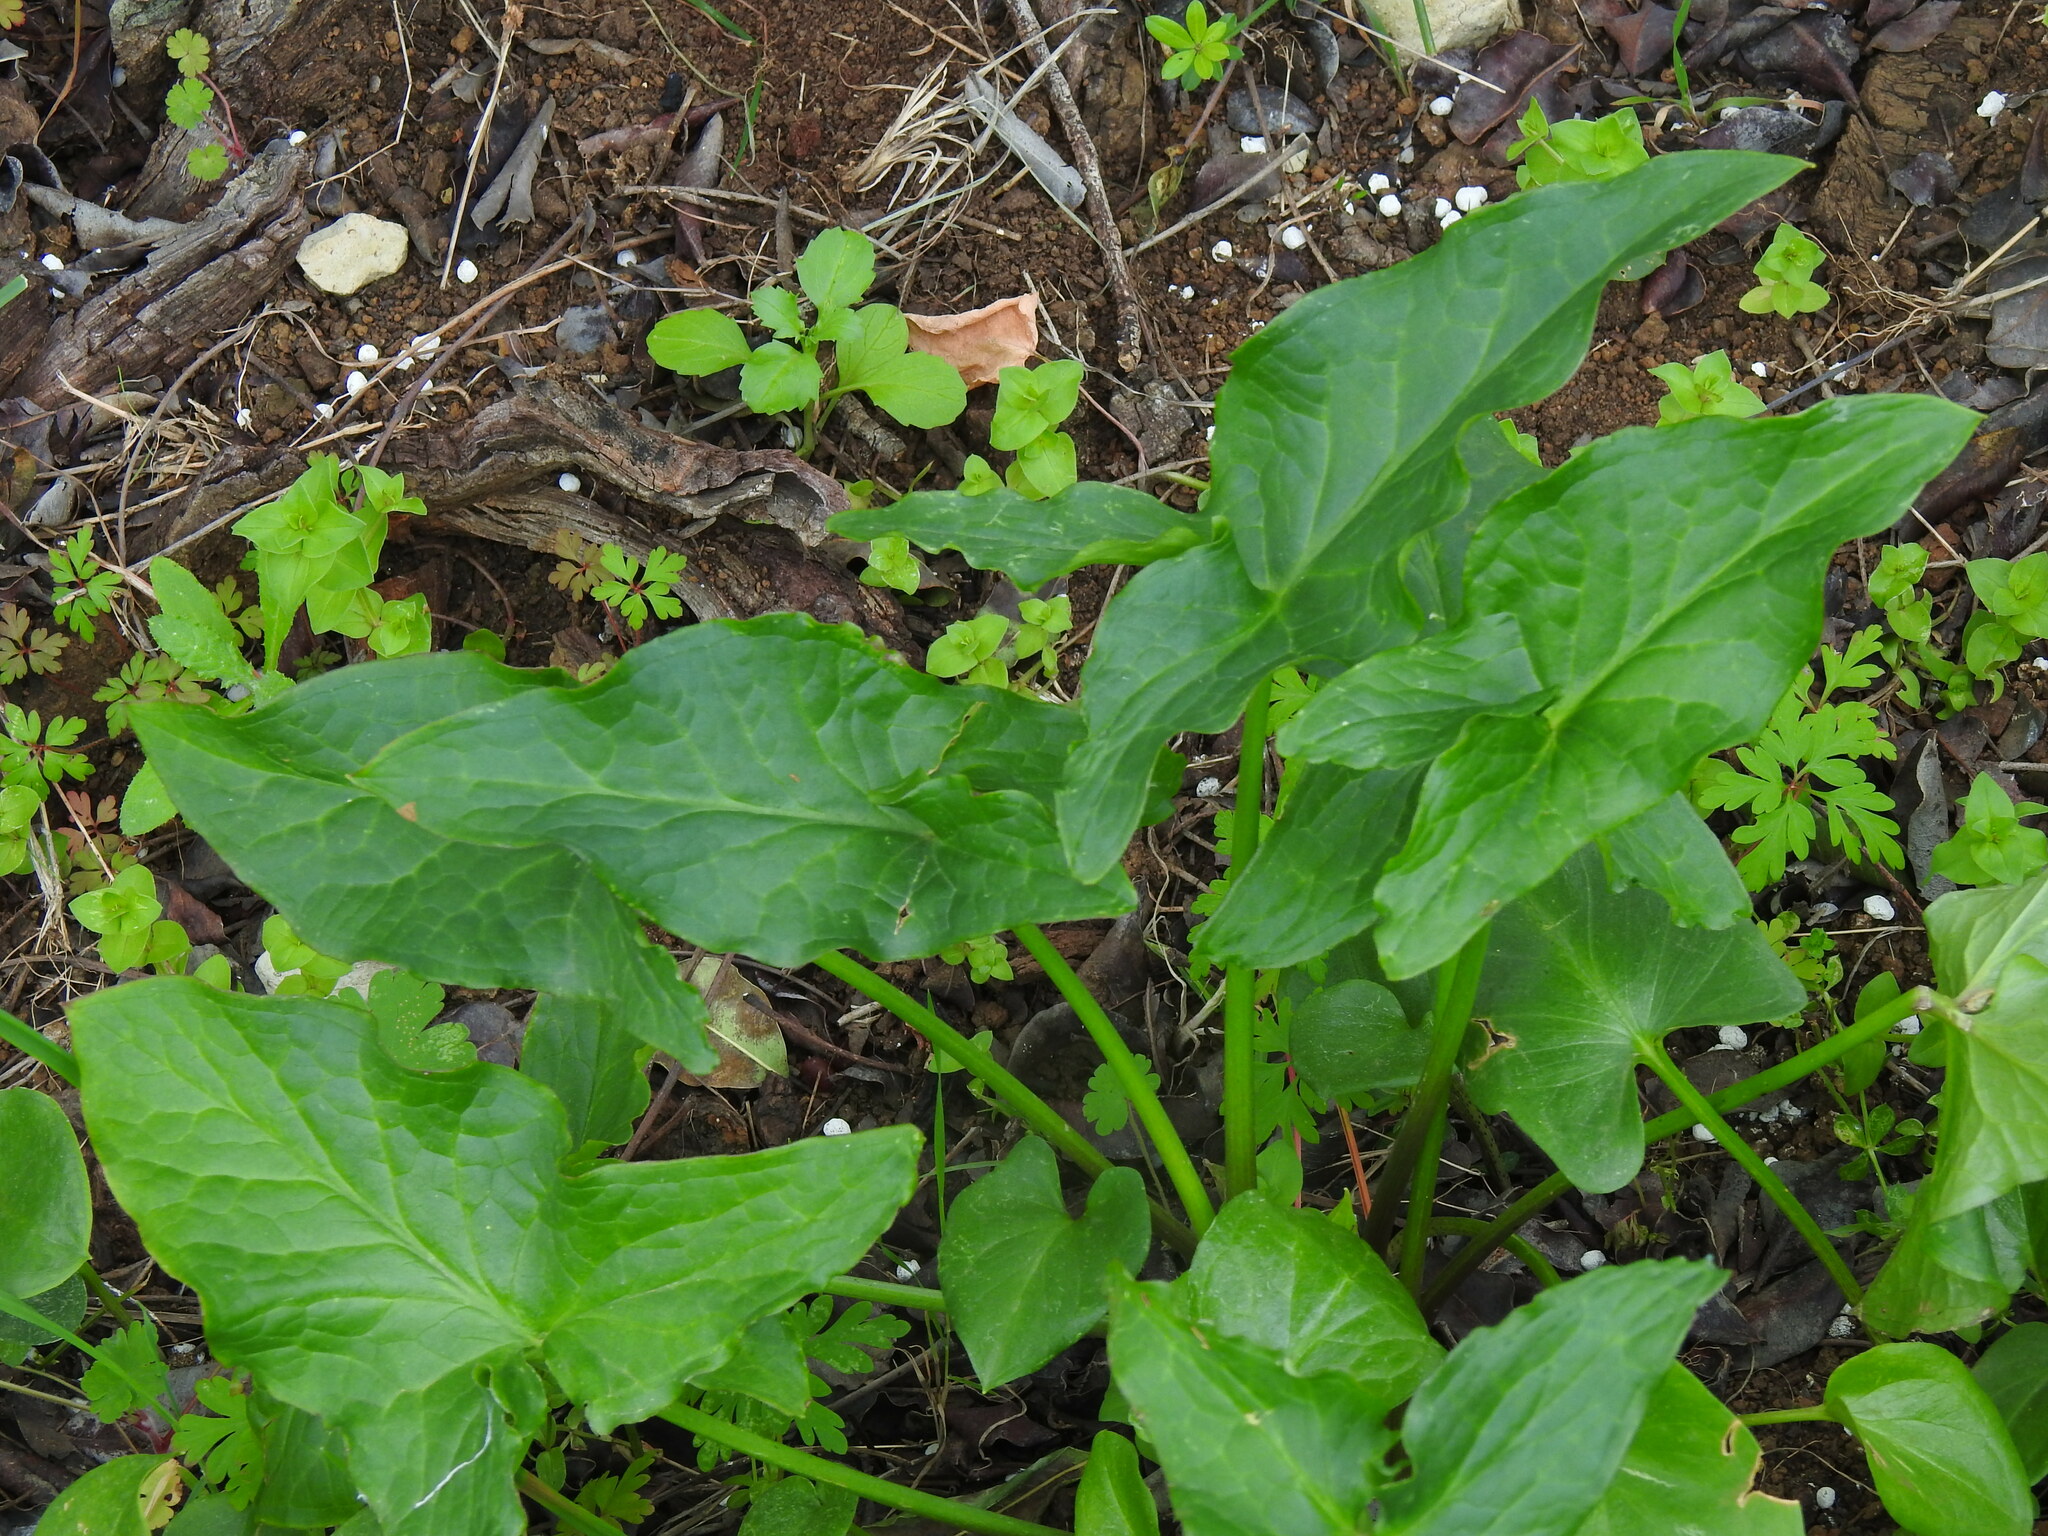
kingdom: Plantae
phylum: Tracheophyta
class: Liliopsida
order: Alismatales
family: Araceae
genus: Arum
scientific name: Arum italicum
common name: Italian lords-and-ladies
